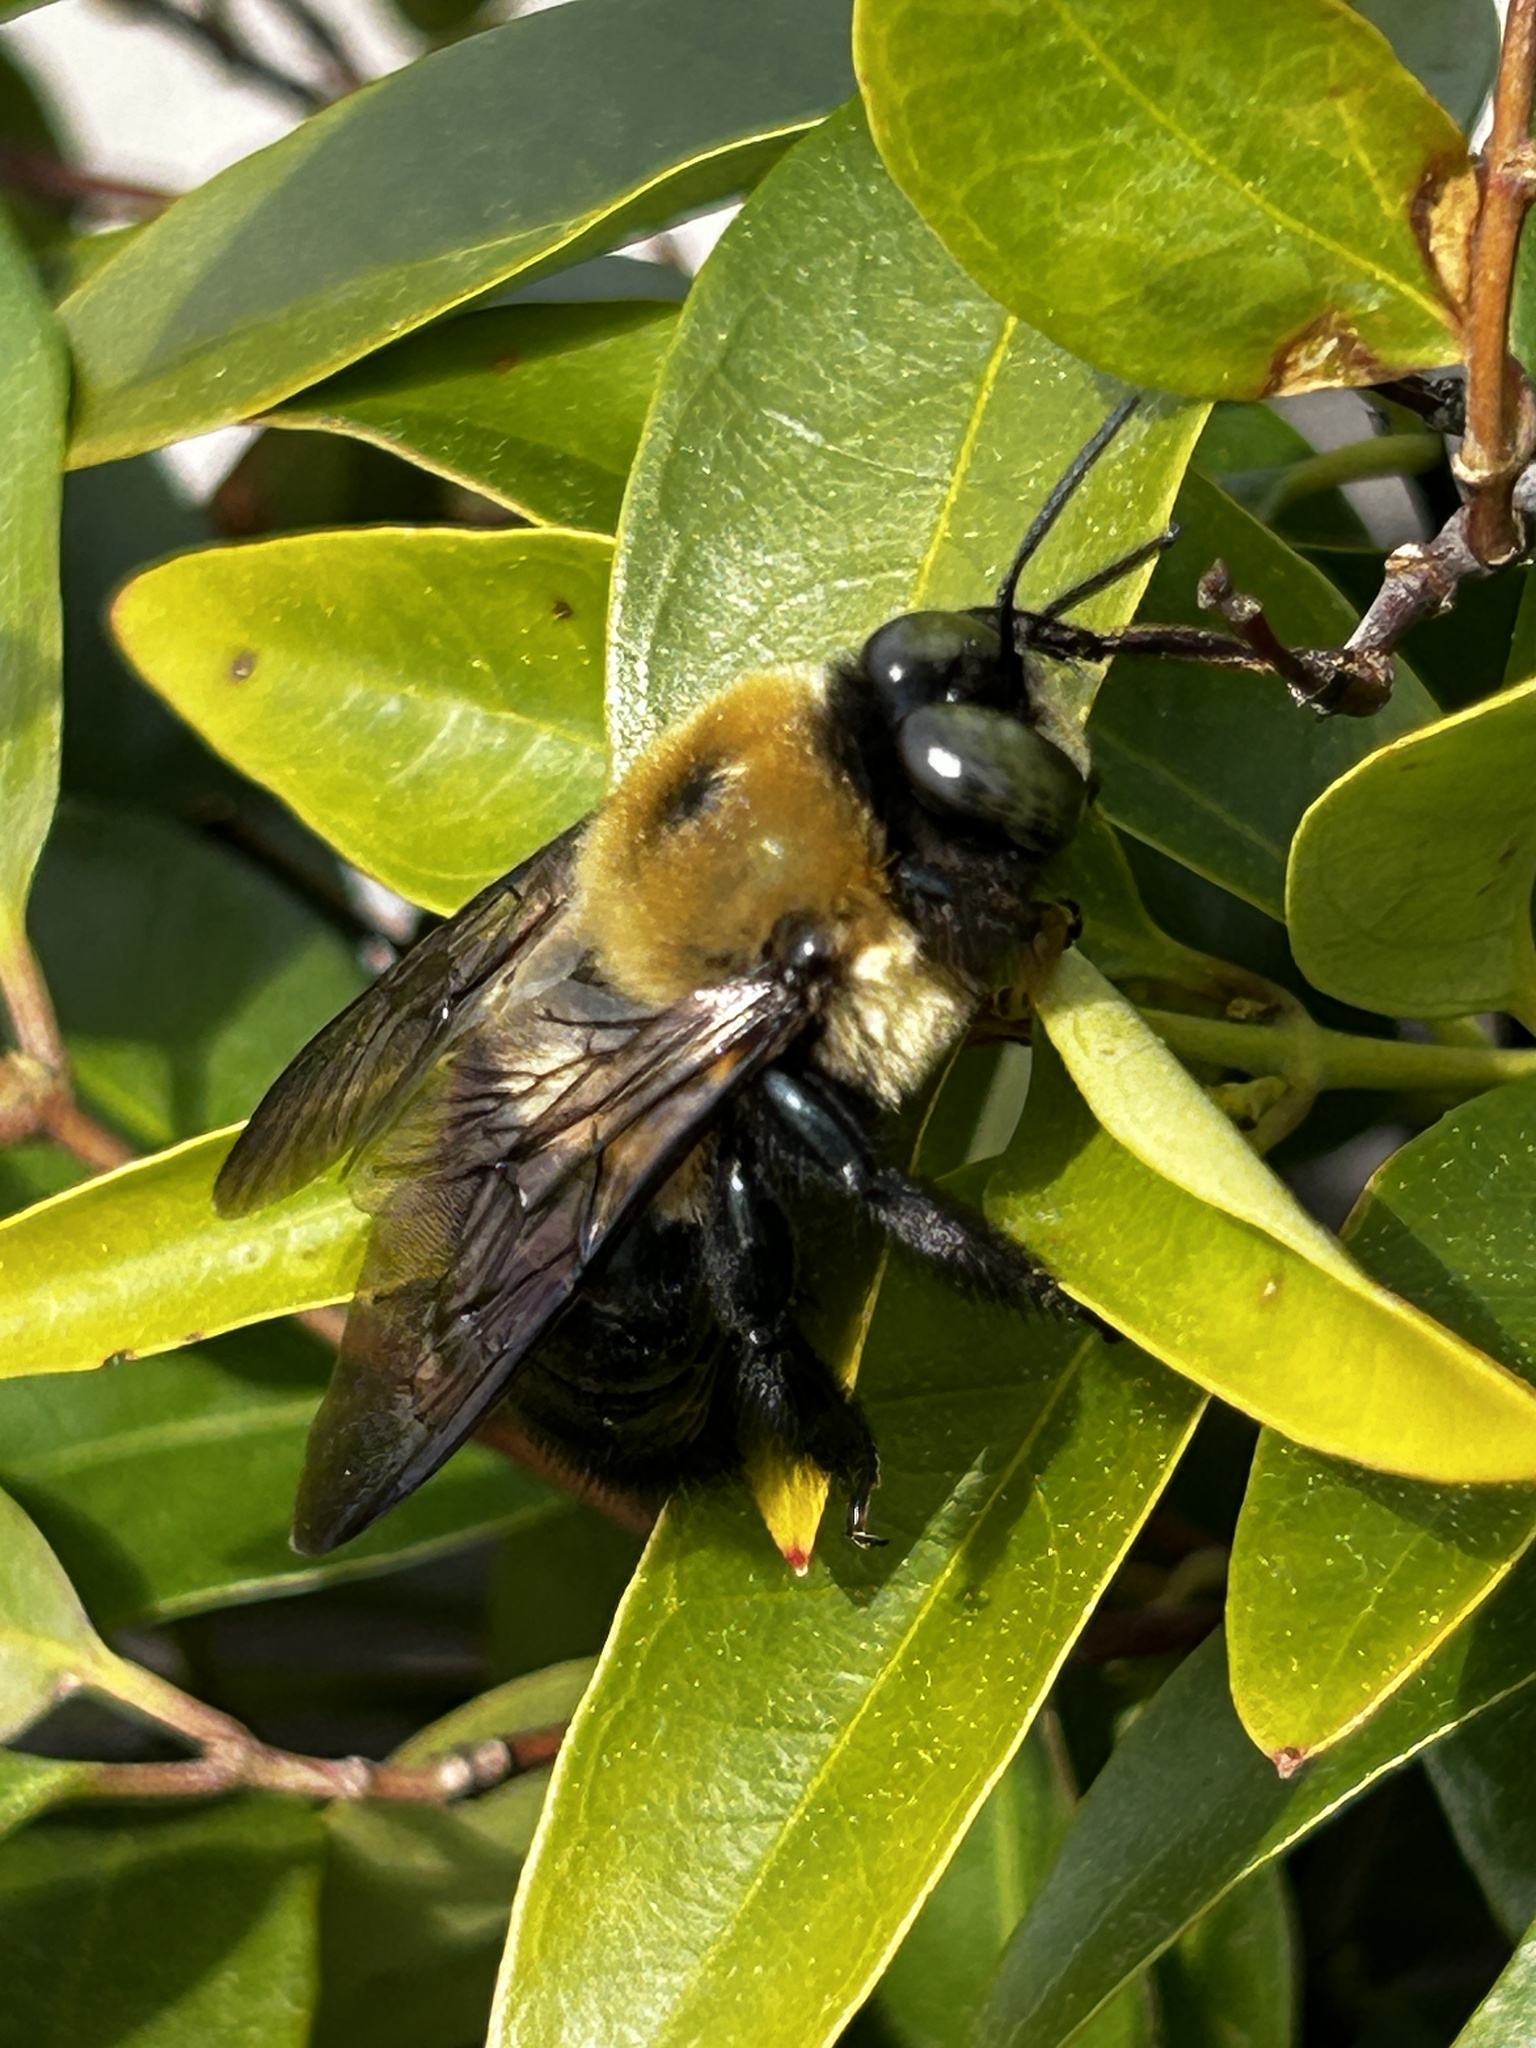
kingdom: Animalia
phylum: Arthropoda
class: Insecta
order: Hymenoptera
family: Apidae
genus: Xylocopa
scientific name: Xylocopa virginica
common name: Carpenter bee
